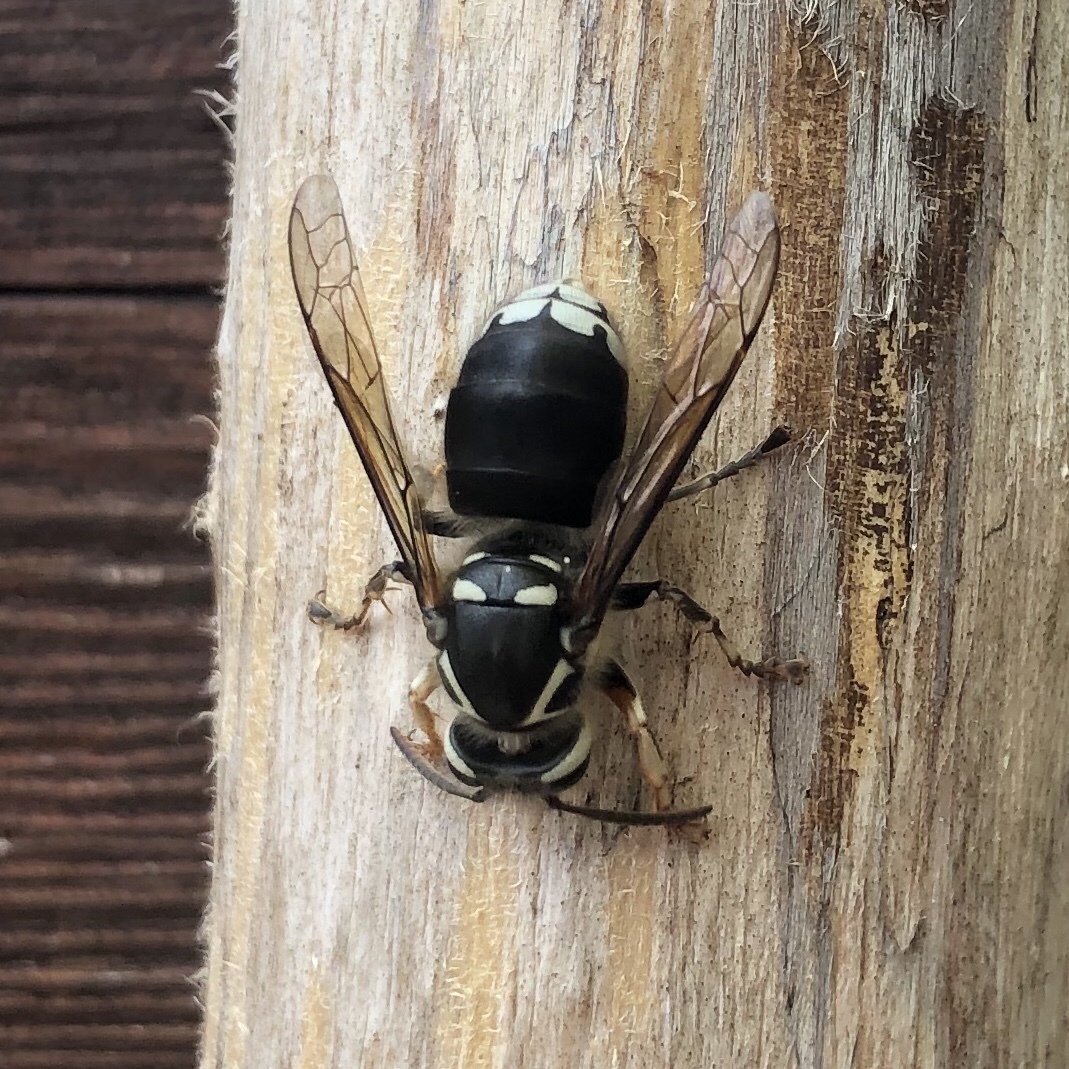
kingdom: Animalia
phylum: Arthropoda
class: Insecta
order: Hymenoptera
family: Vespidae
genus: Dolichovespula
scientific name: Dolichovespula maculata
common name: Bald-faced hornet
